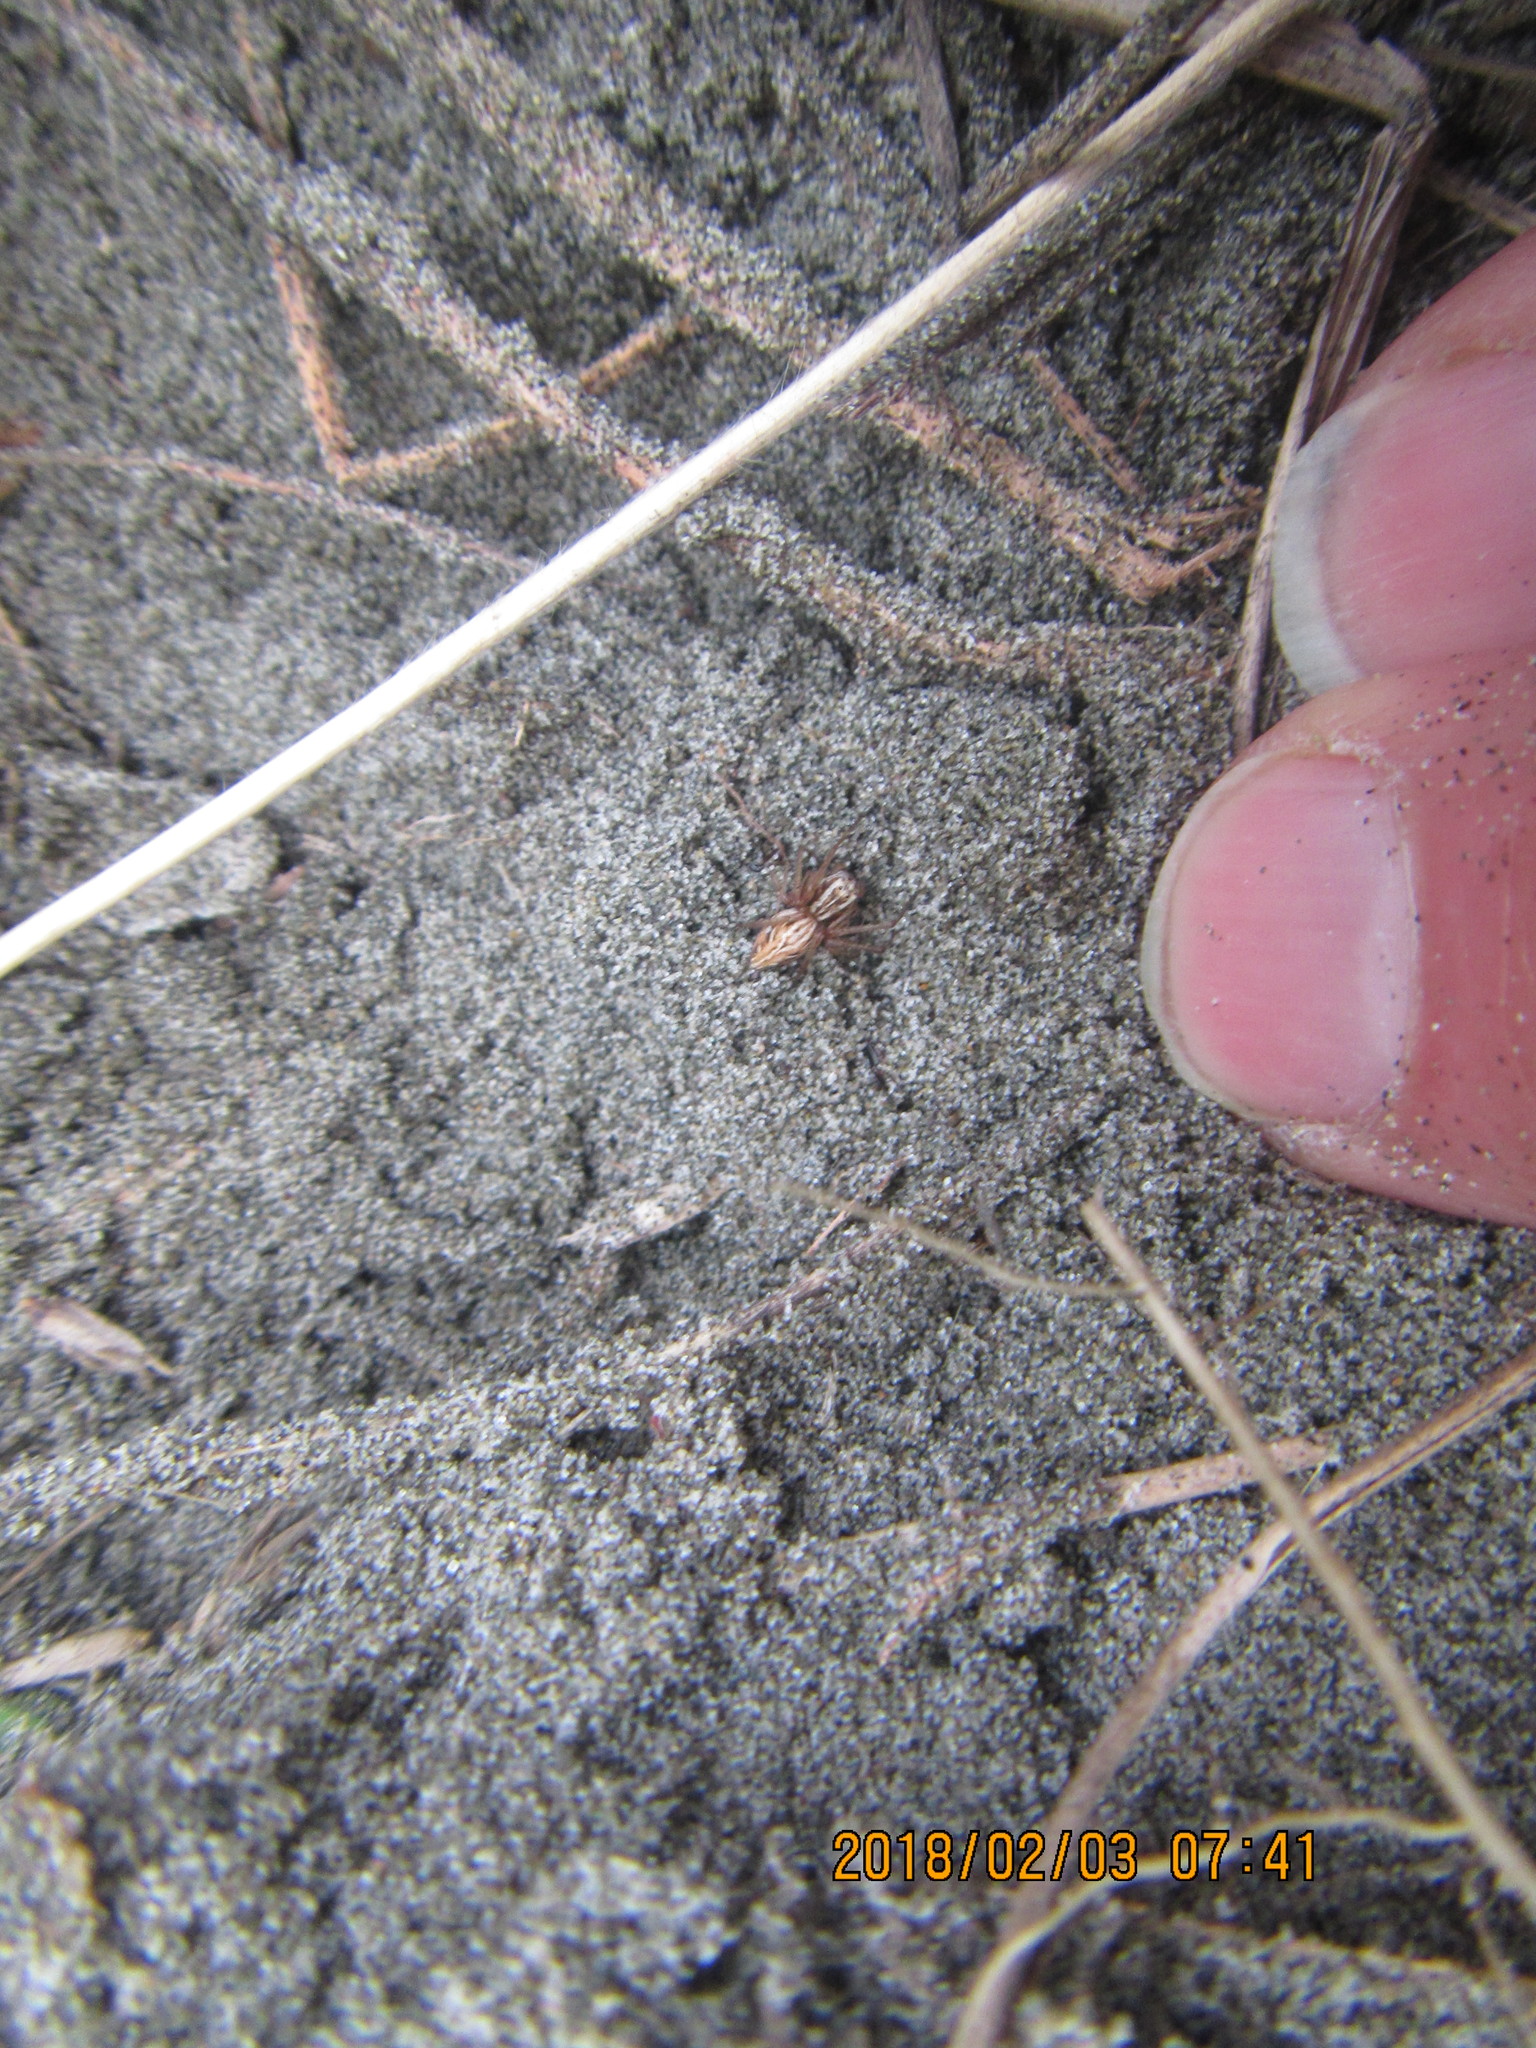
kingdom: Animalia
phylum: Arthropoda
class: Arachnida
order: Araneae
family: Oxyopidae
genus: Oxyopes
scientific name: Oxyopes gracilipes
